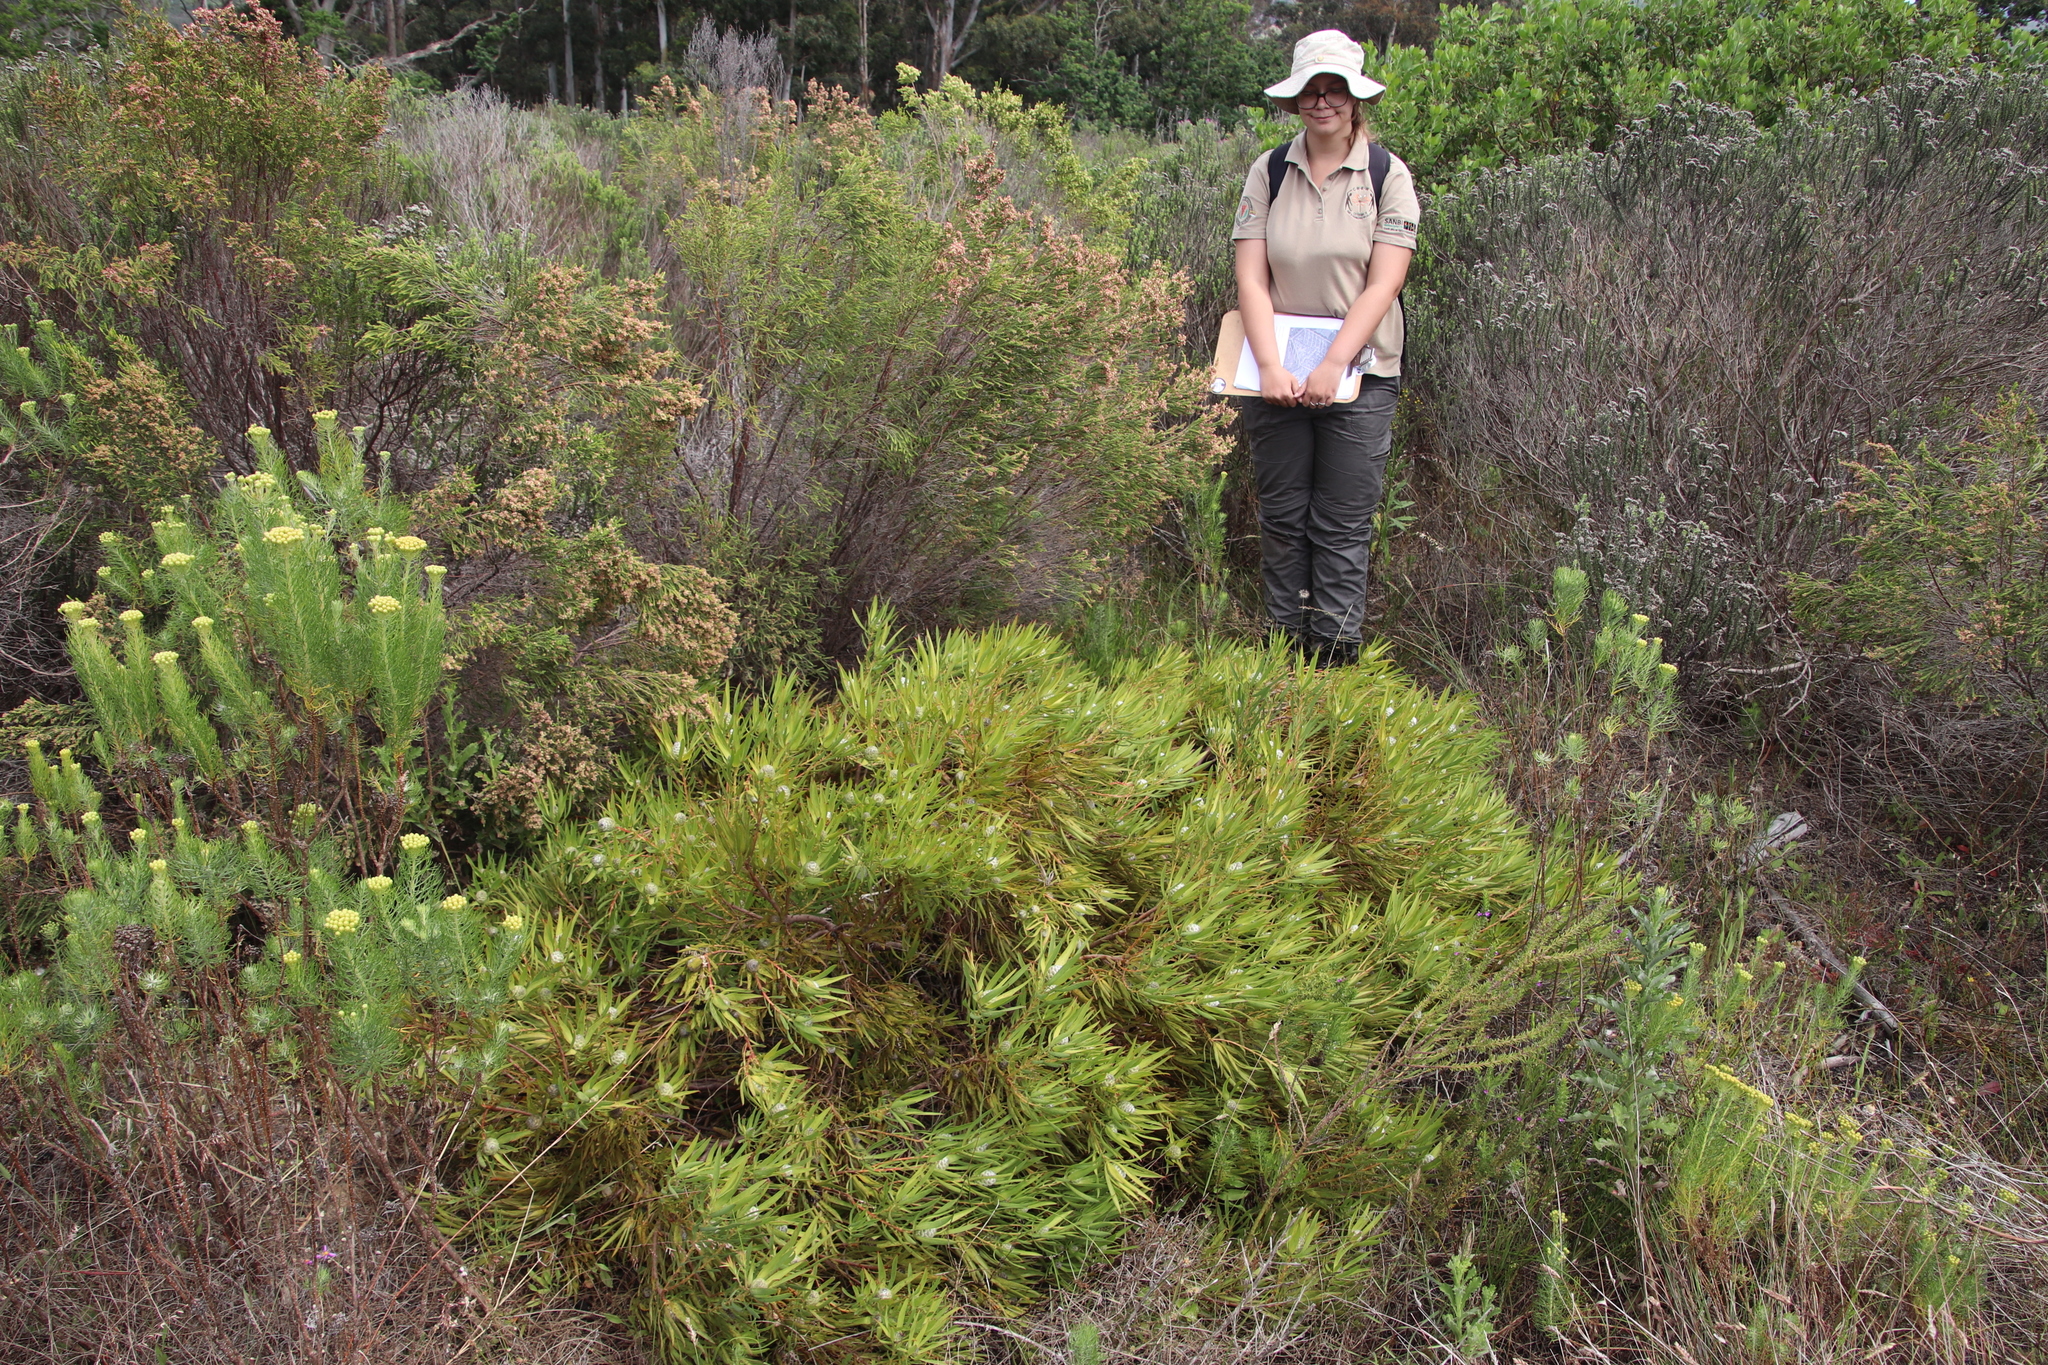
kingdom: Plantae
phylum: Tracheophyta
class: Magnoliopsida
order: Proteales
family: Proteaceae
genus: Leucadendron
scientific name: Leucadendron salignum
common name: Common sunshine conebush
